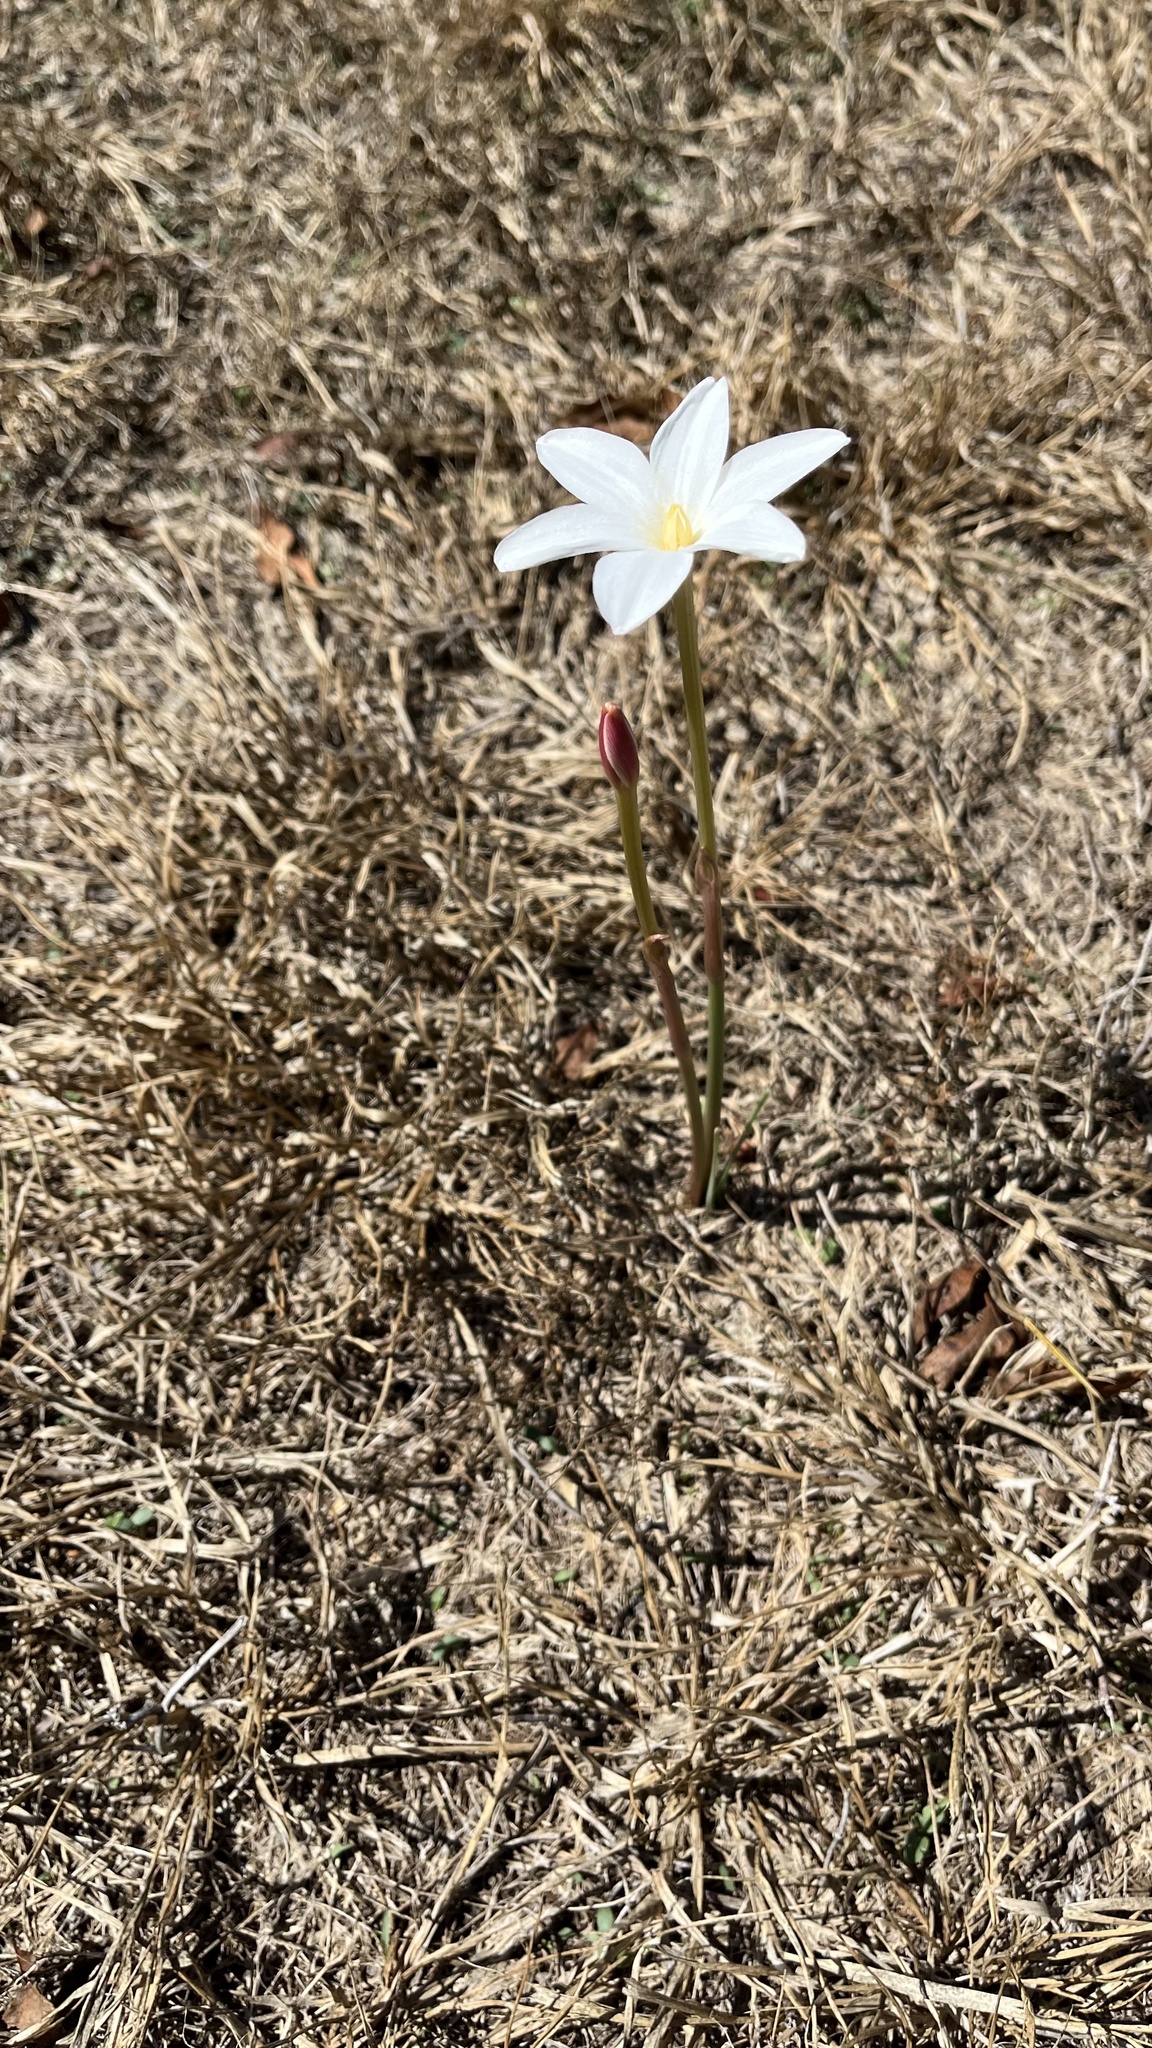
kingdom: Plantae
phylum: Tracheophyta
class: Liliopsida
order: Asparagales
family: Amaryllidaceae
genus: Zephyranthes
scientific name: Zephyranthes chlorosolen
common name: Evening rain-lily
